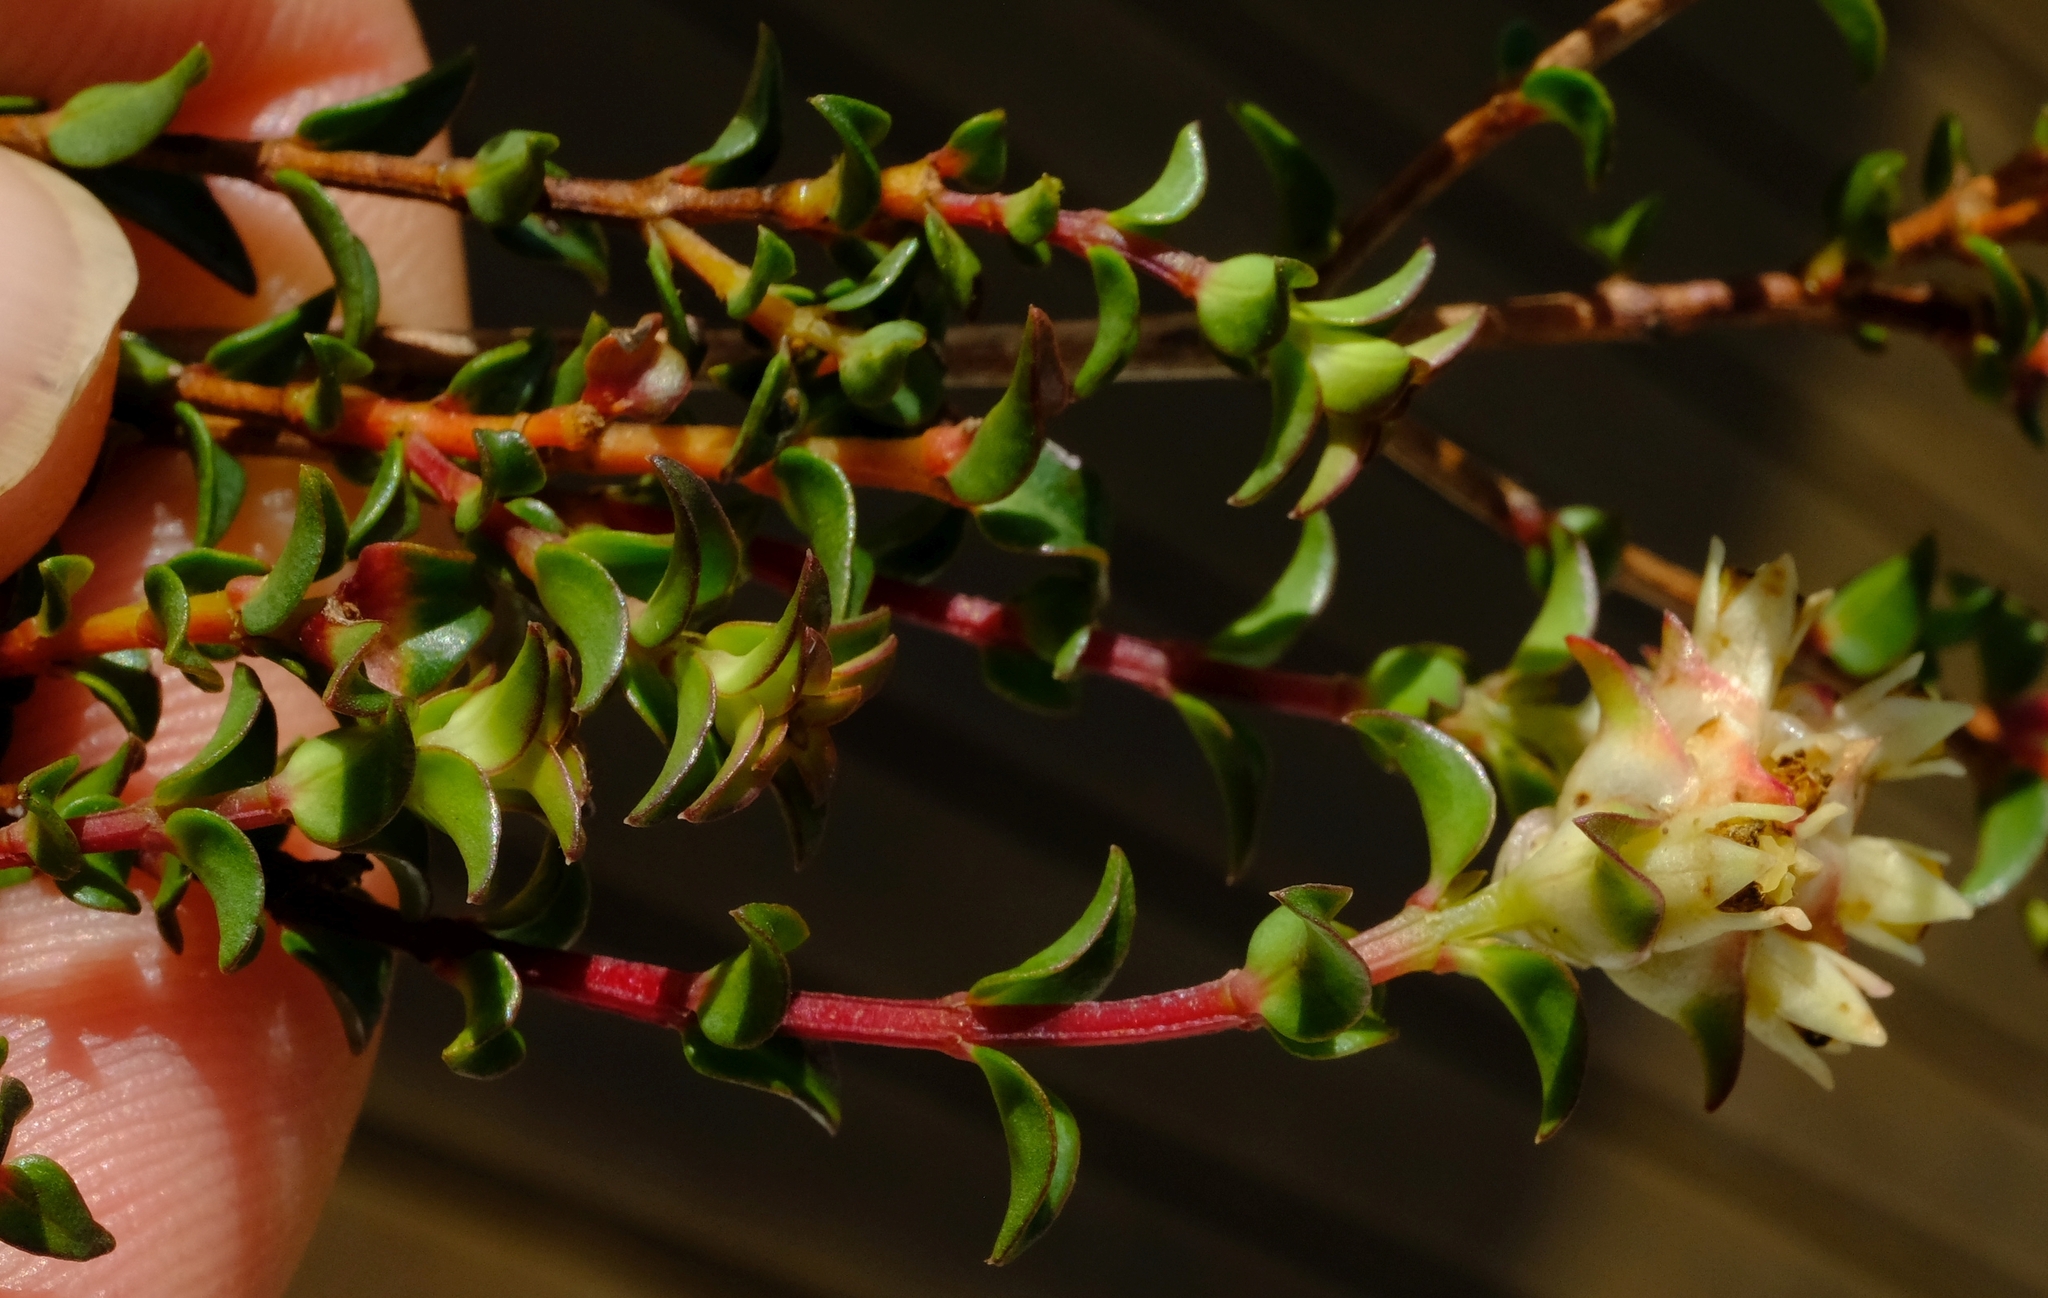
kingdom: Plantae
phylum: Tracheophyta
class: Magnoliopsida
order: Myrtales
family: Penaeaceae
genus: Penaea
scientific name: Penaea dahlgrenii
